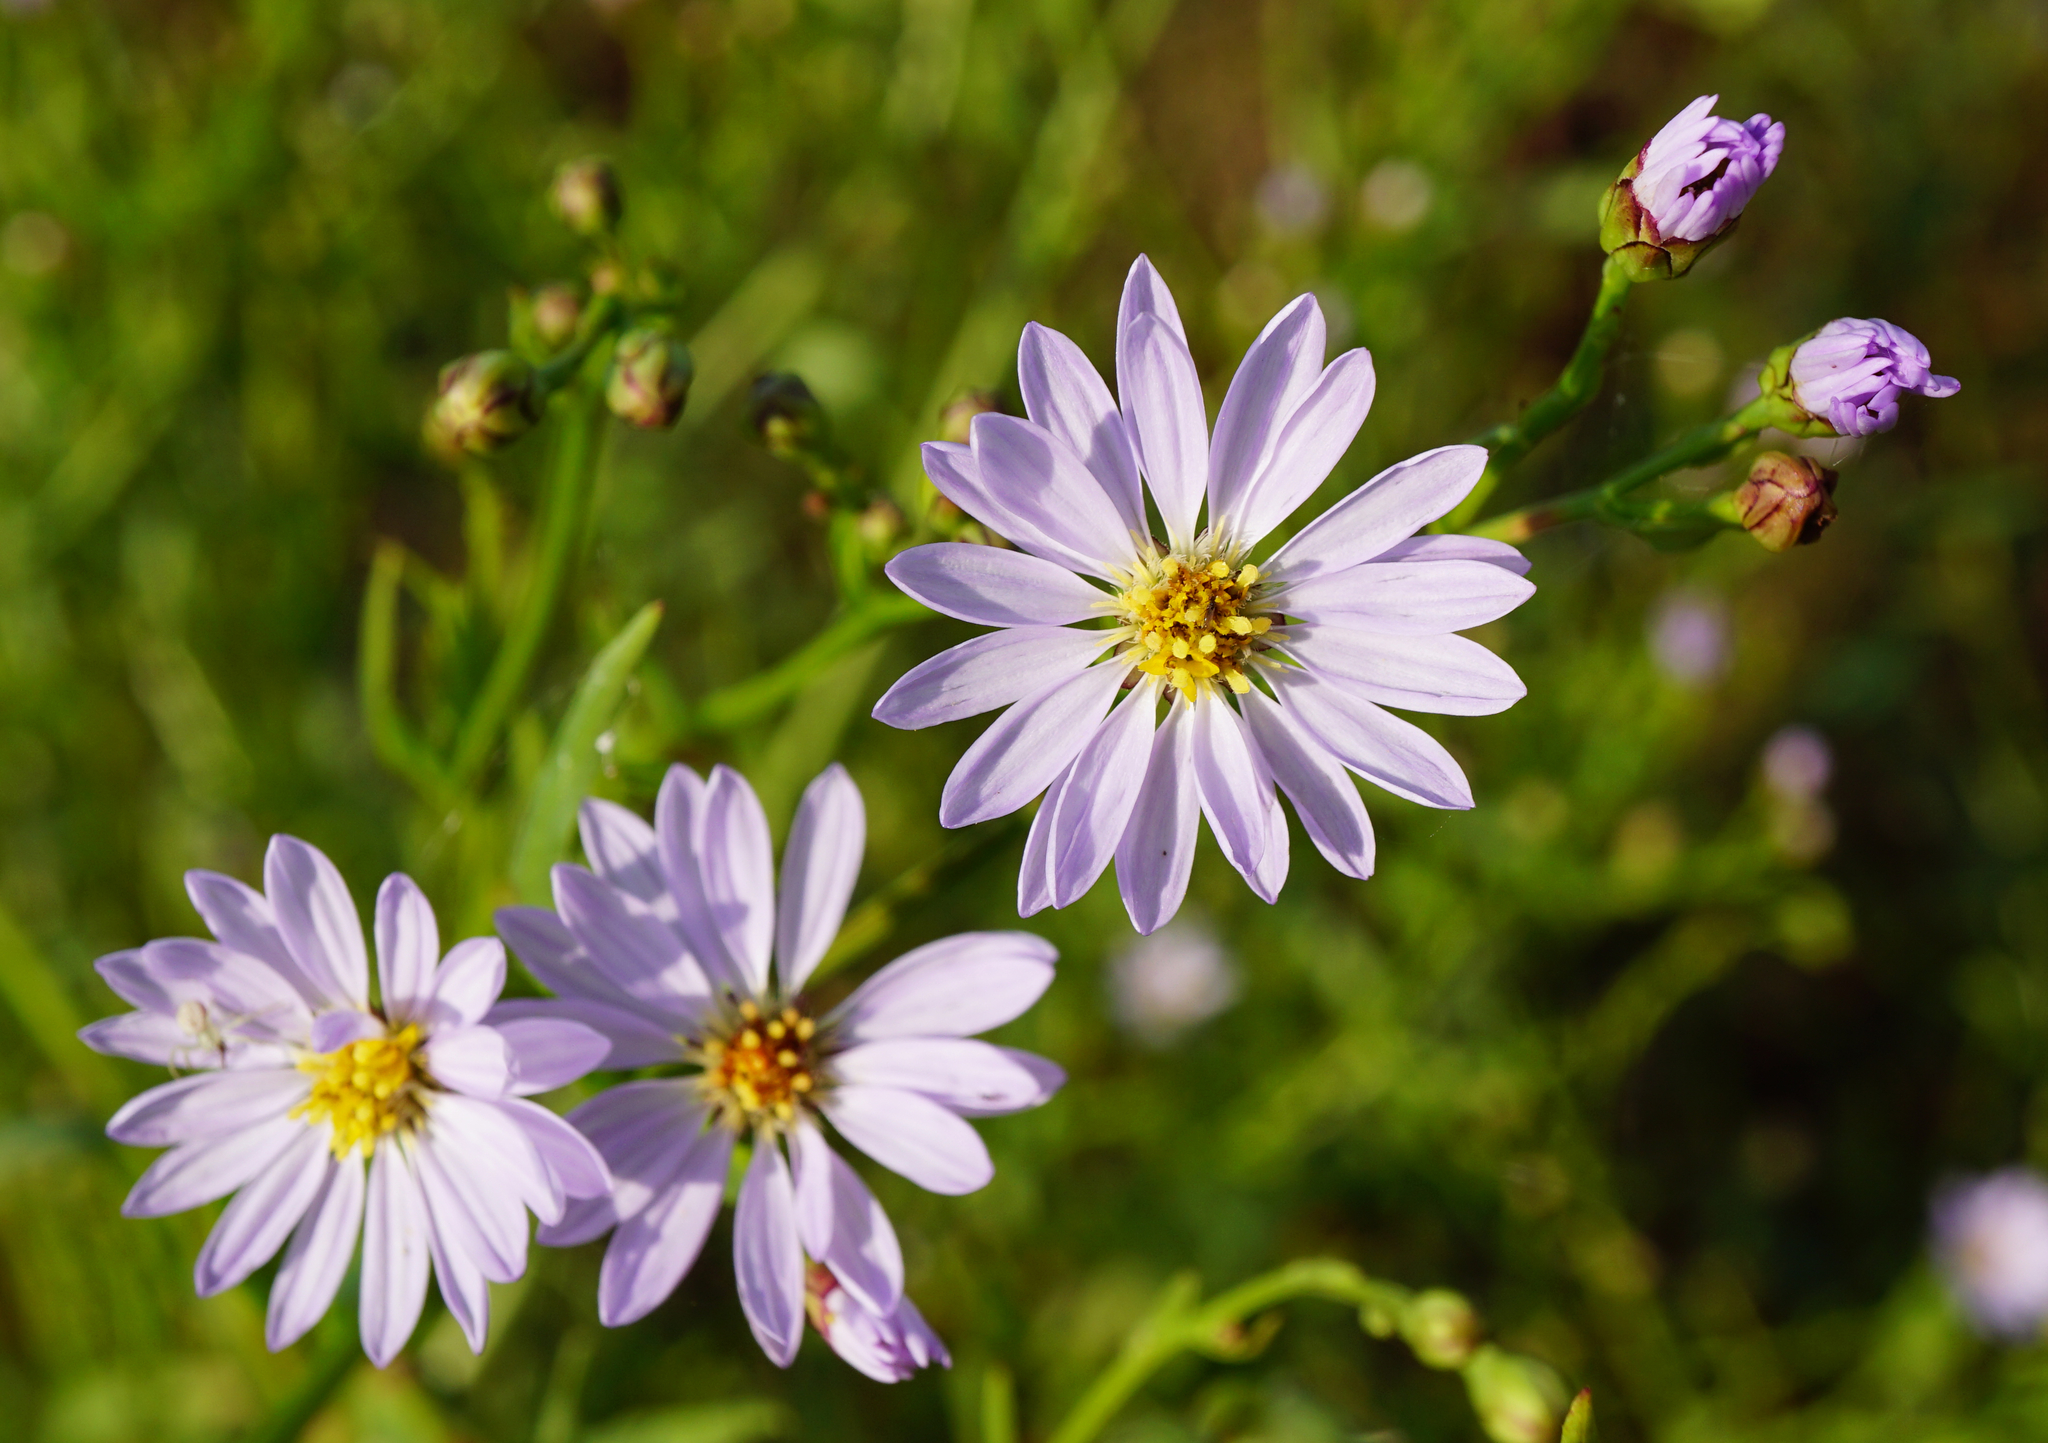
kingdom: Plantae
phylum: Tracheophyta
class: Magnoliopsida
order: Asterales
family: Asteraceae
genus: Tripolium
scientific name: Tripolium pannonicum
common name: Sea aster
